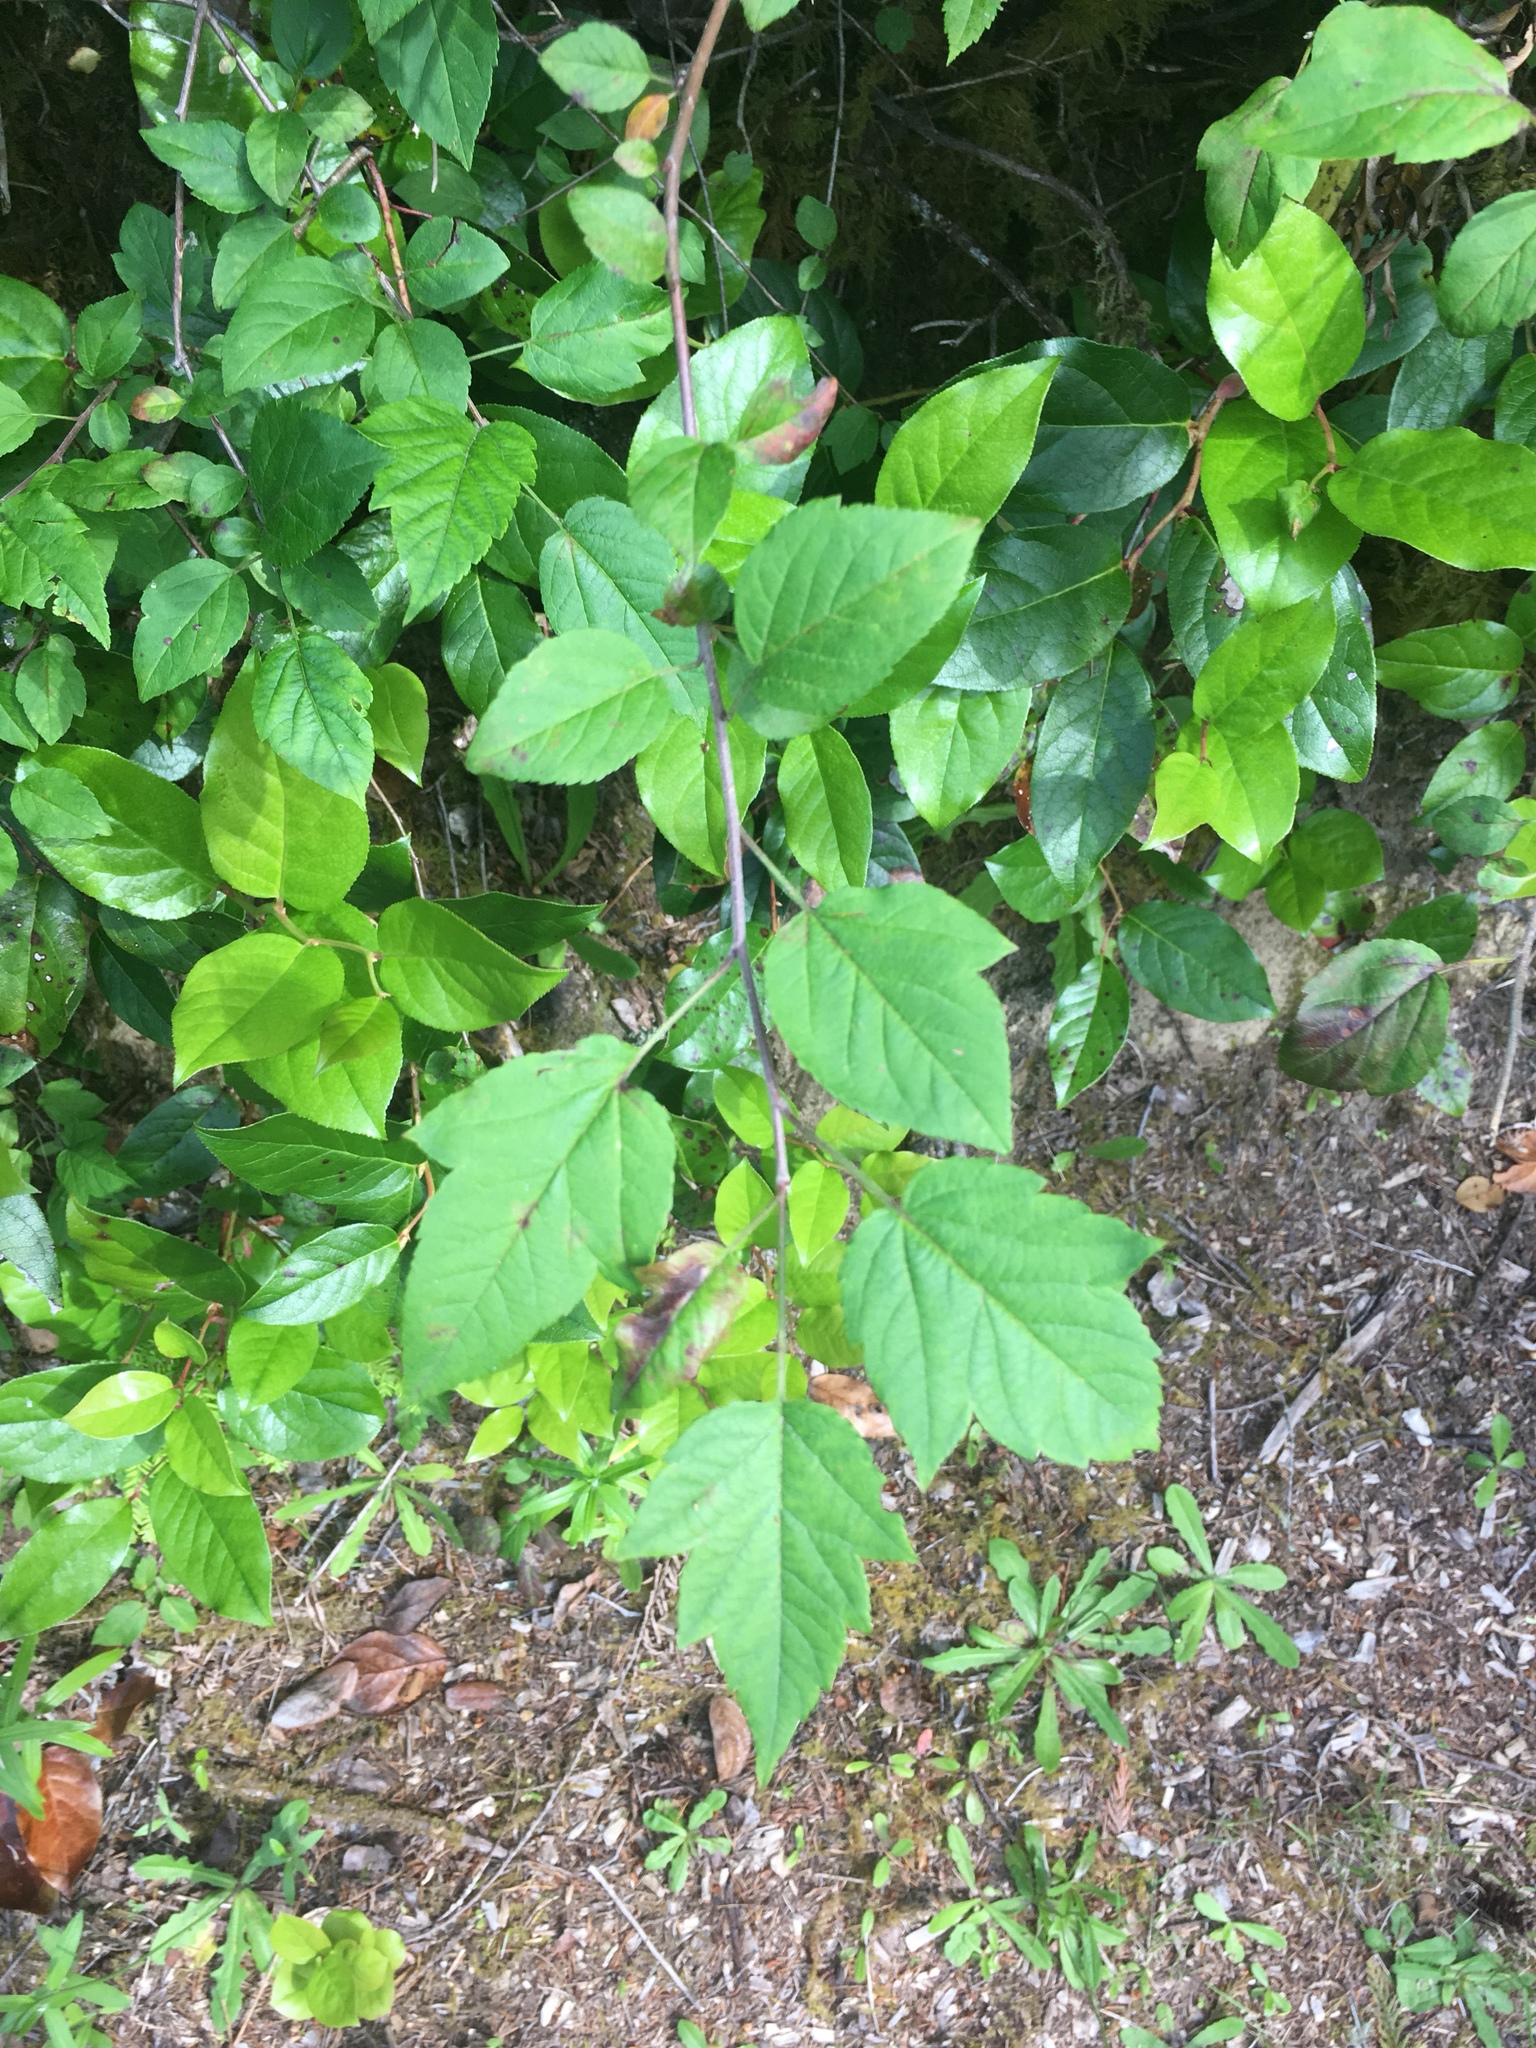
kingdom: Plantae
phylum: Tracheophyta
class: Magnoliopsida
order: Rosales
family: Rosaceae
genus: Malus
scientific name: Malus fusca
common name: Oregon crab apple
